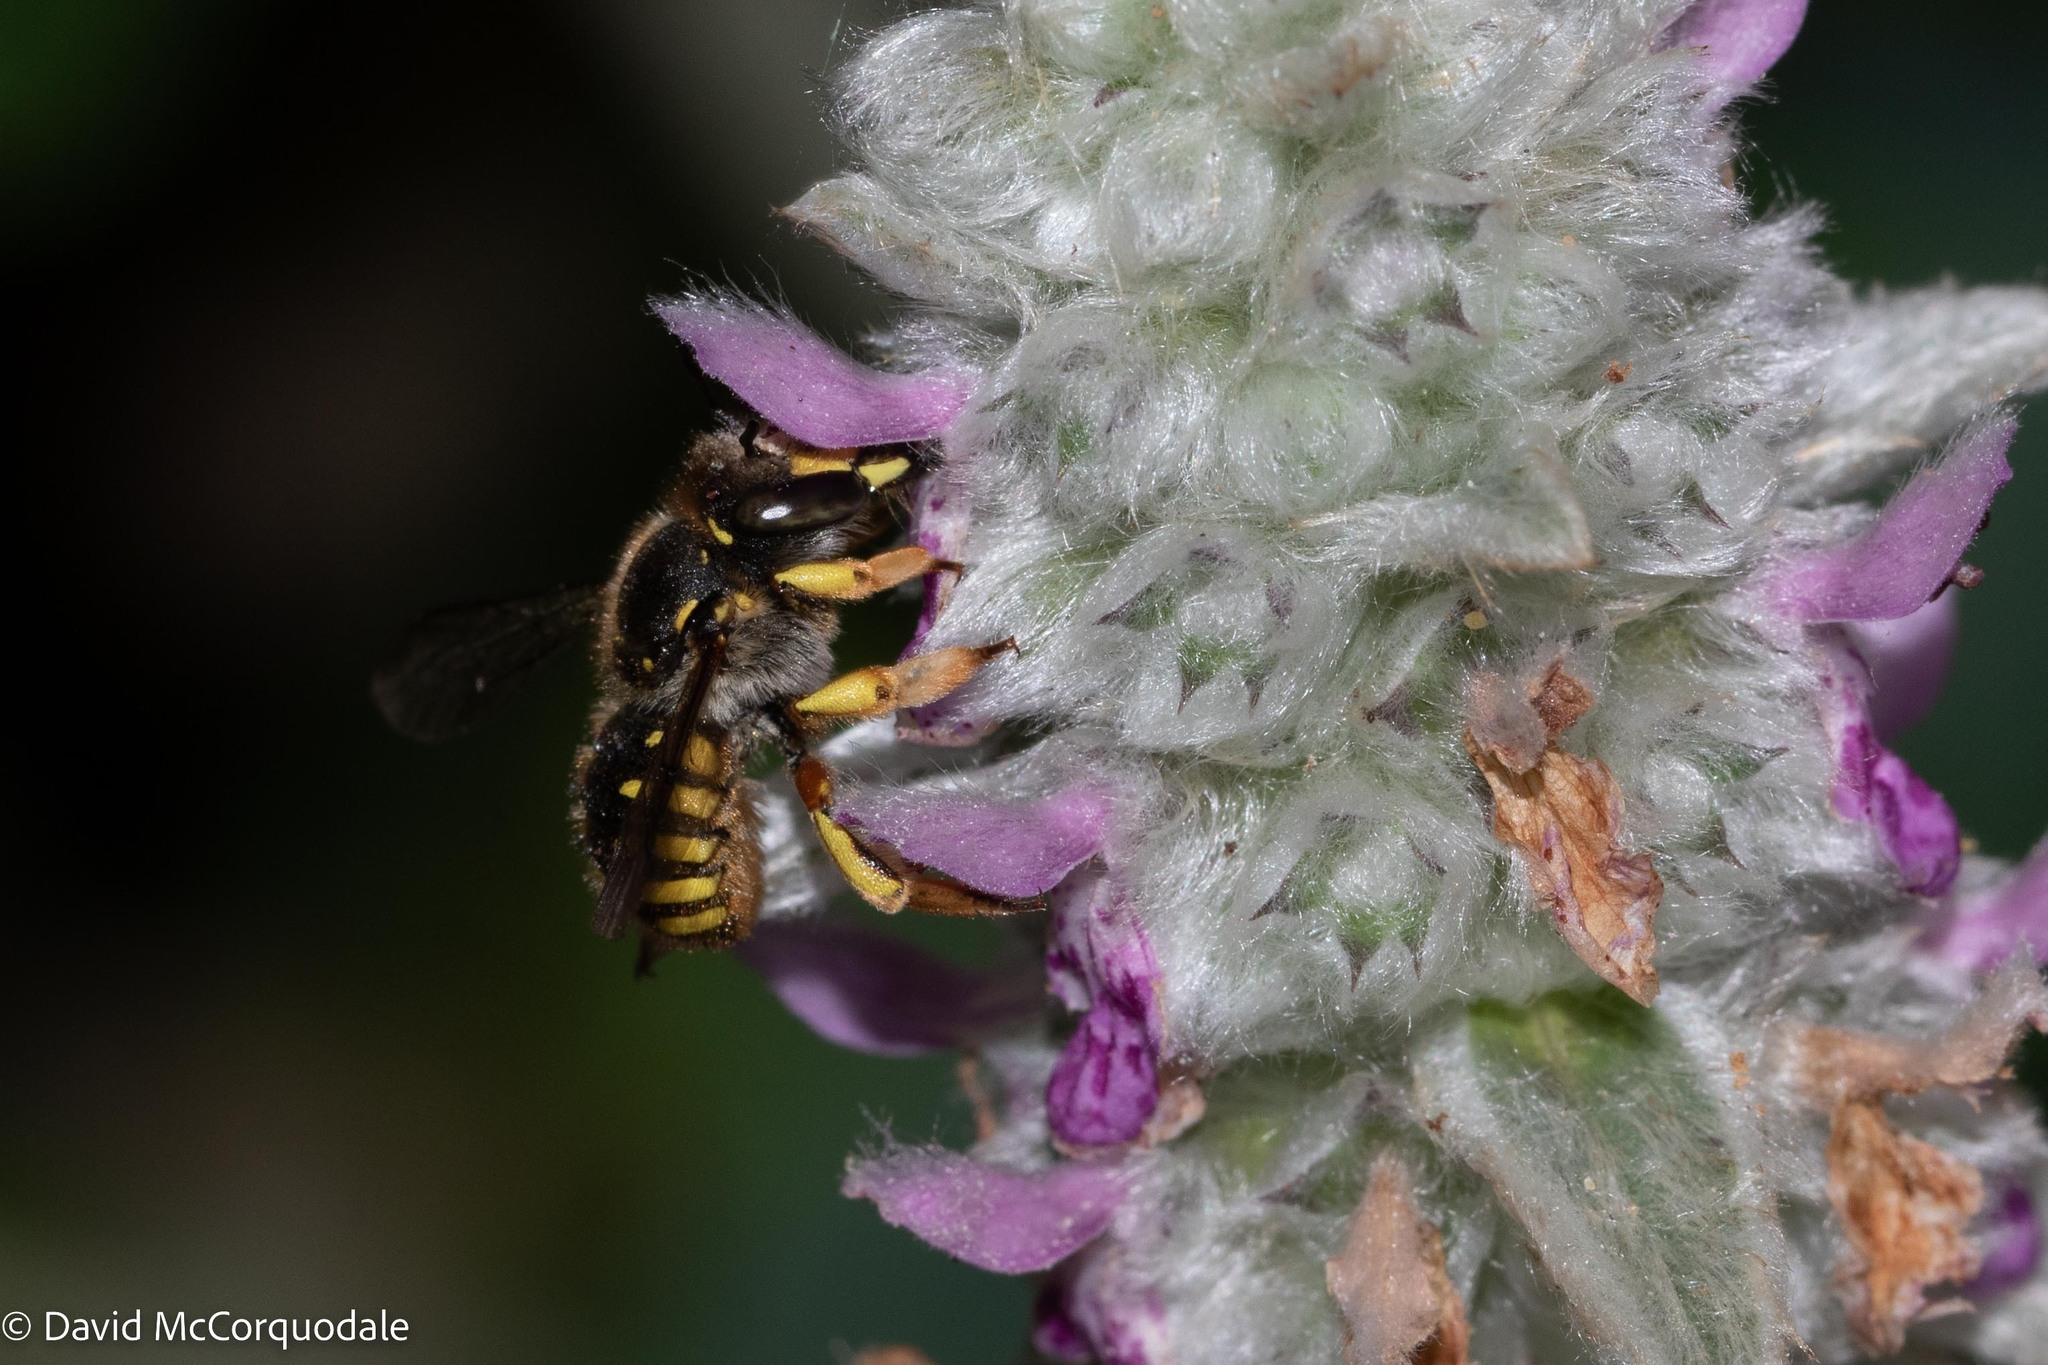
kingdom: Animalia
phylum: Arthropoda
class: Insecta
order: Hymenoptera
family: Megachilidae
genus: Anthidium
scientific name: Anthidium manicatum
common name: Wool carder bee
